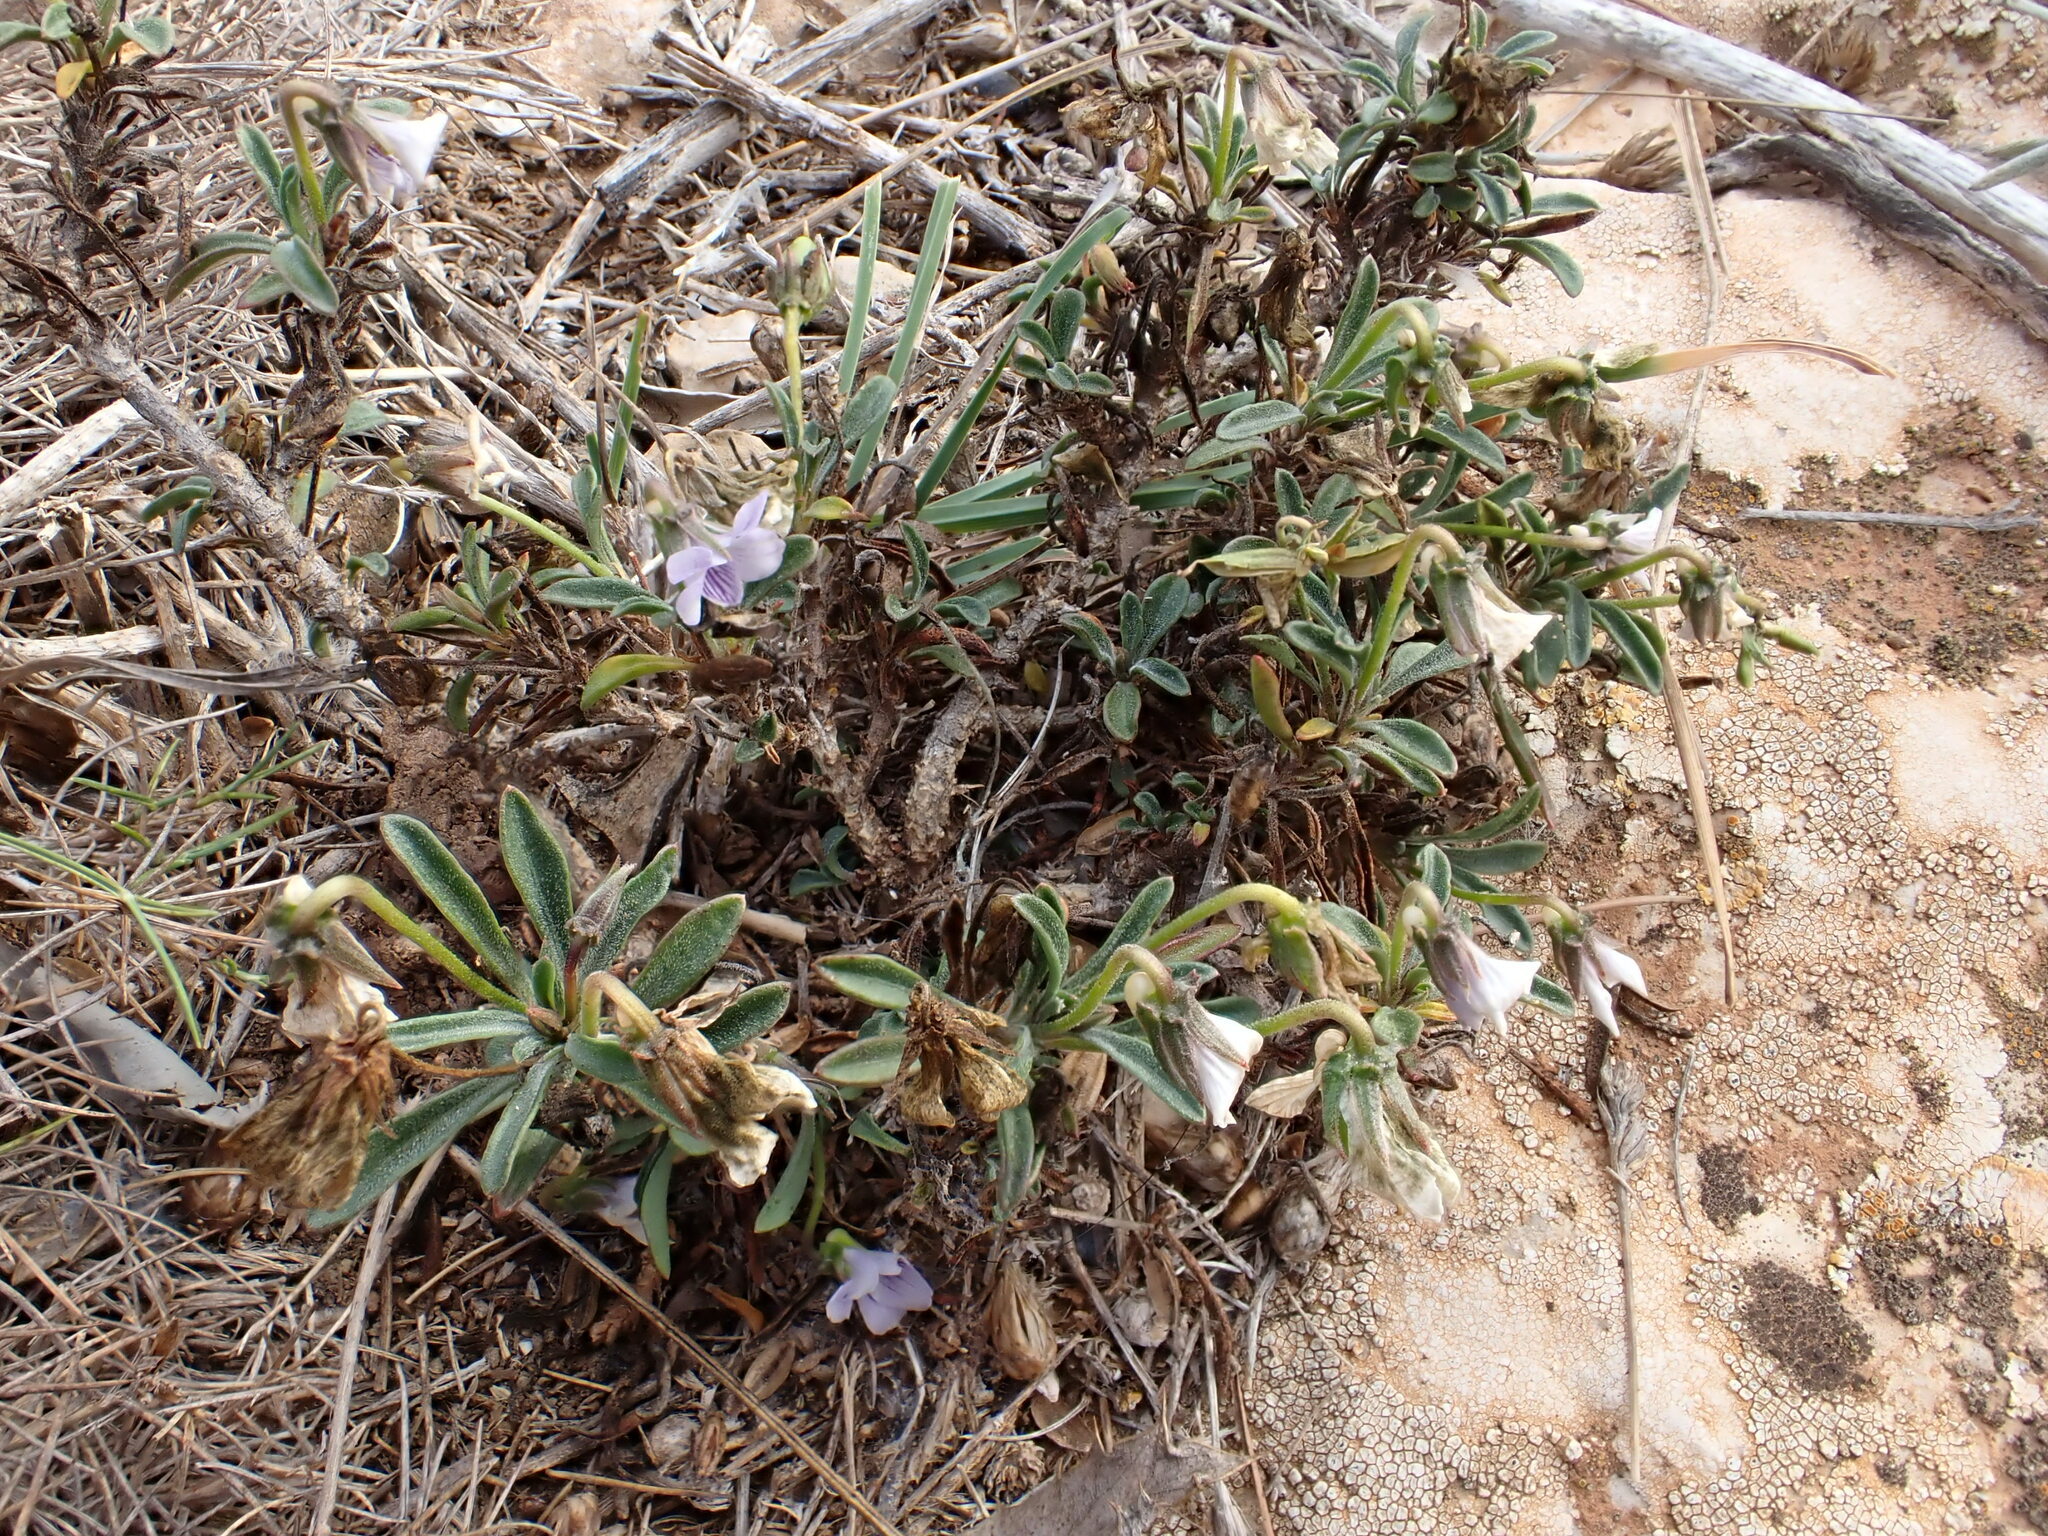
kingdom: Plantae
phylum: Tracheophyta
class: Magnoliopsida
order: Malpighiales
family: Violaceae
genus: Viola
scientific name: Viola arborescens
